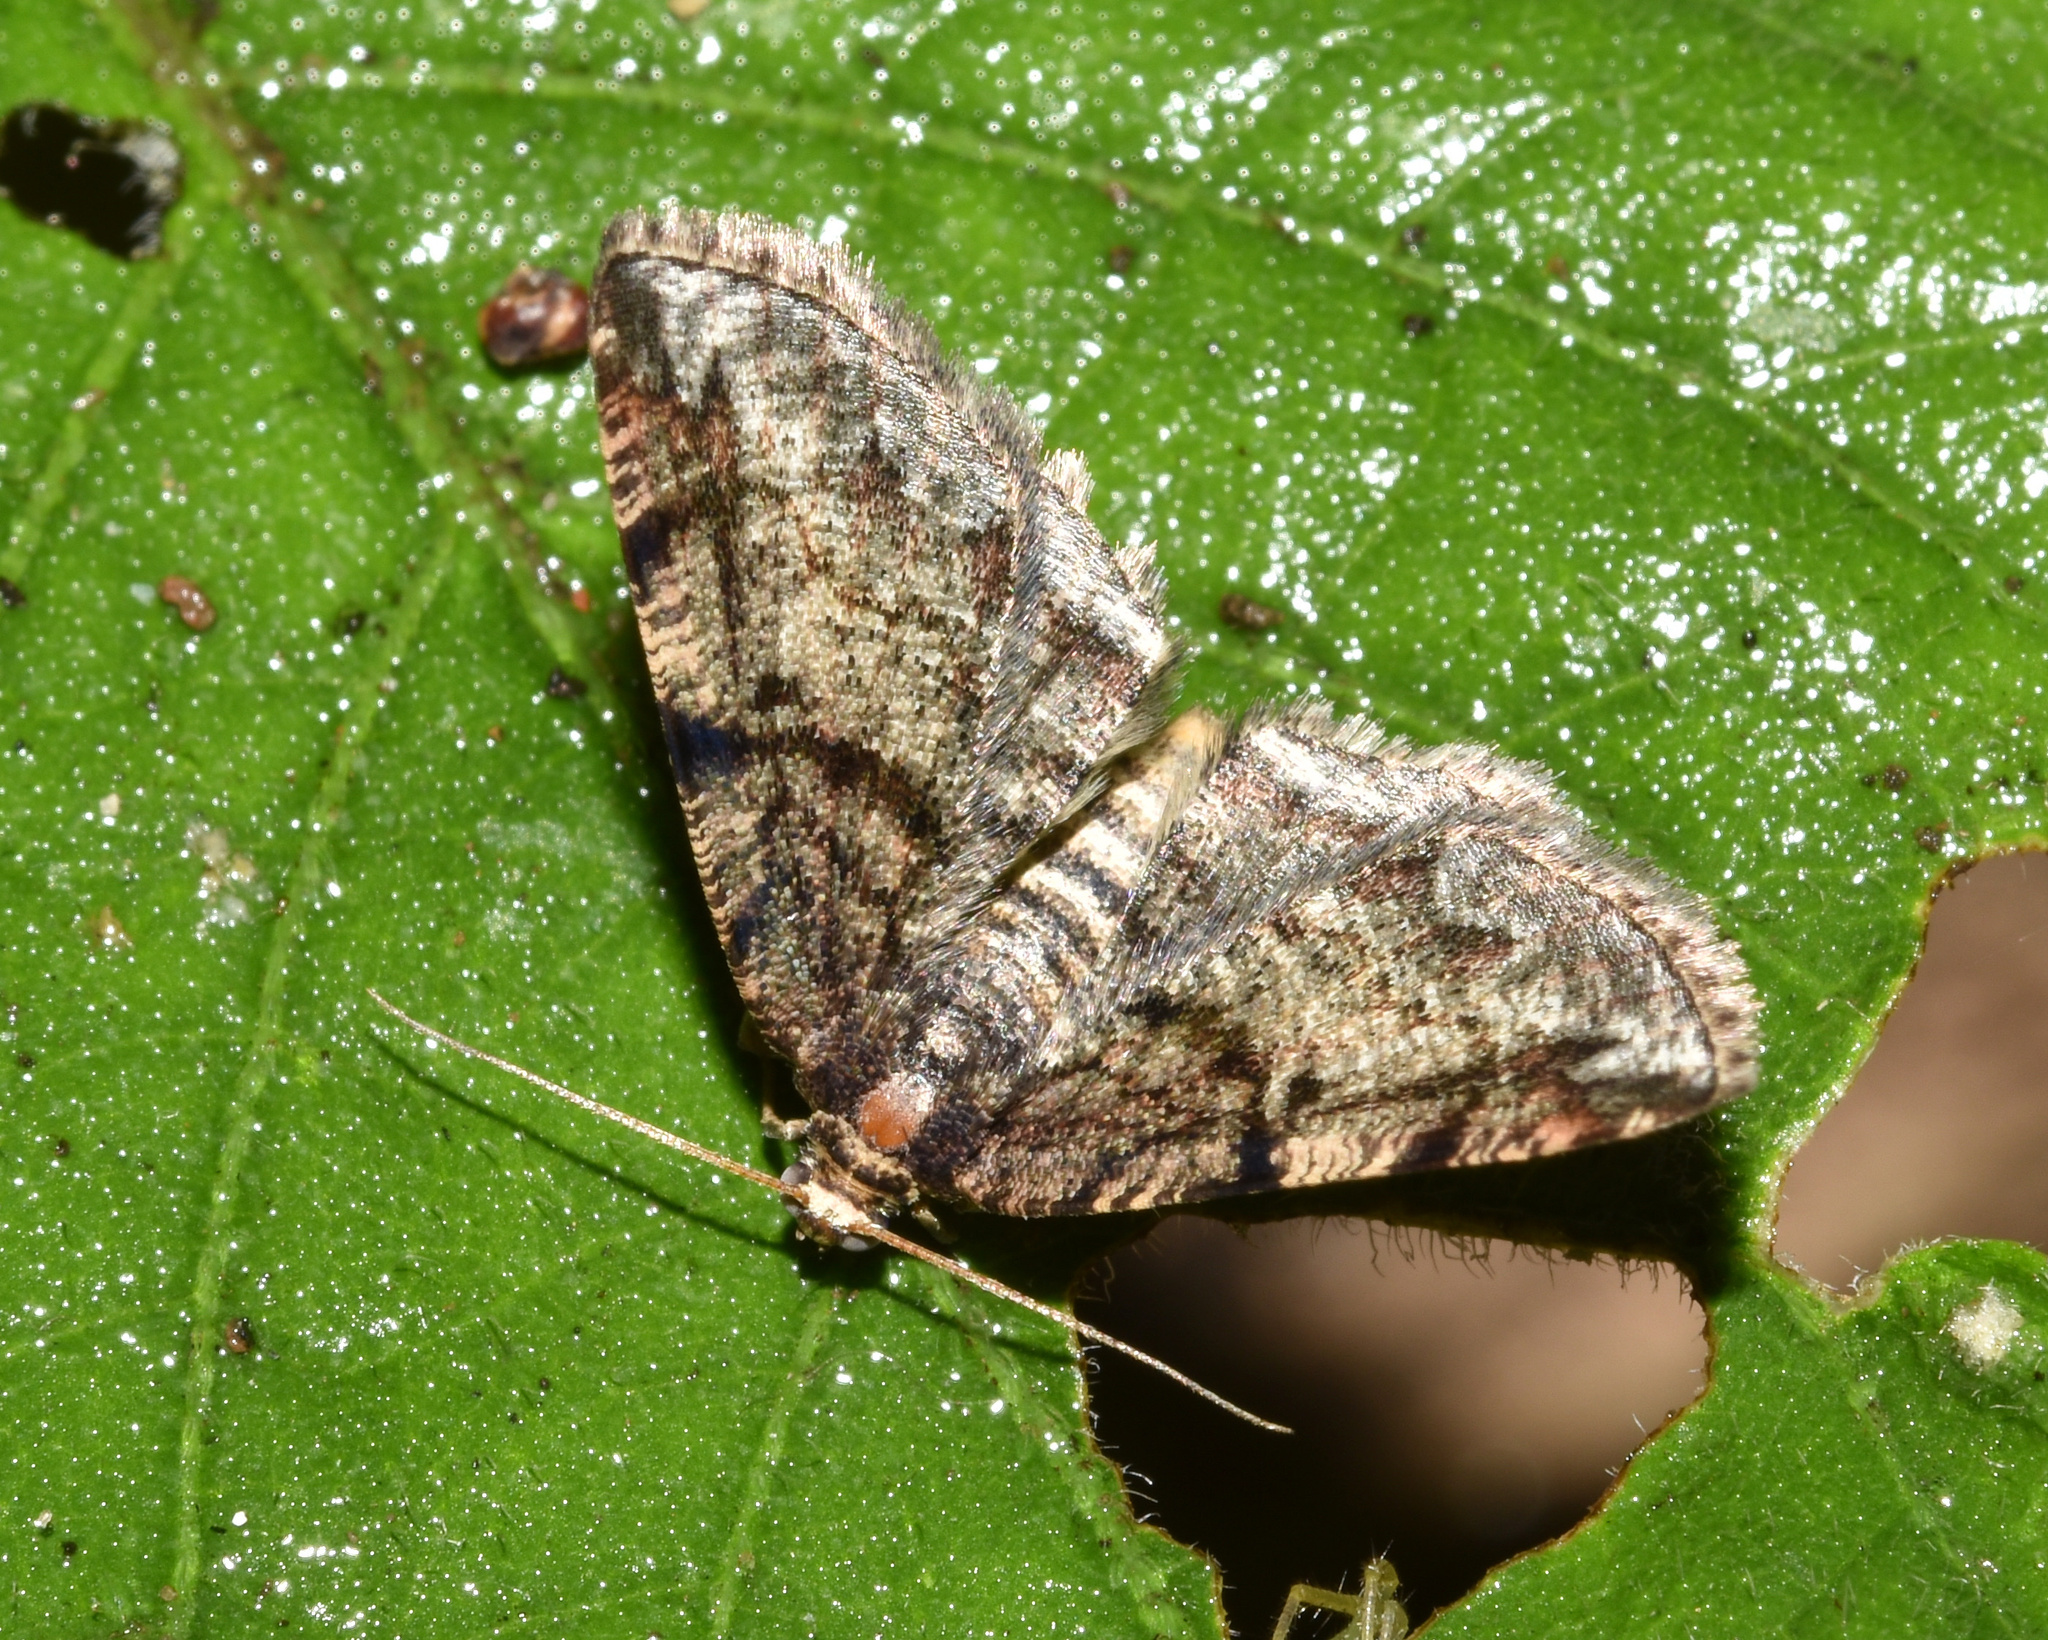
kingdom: Animalia
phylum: Arthropoda
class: Insecta
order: Lepidoptera
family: Geometridae
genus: Cabera
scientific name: Cabera elatina
